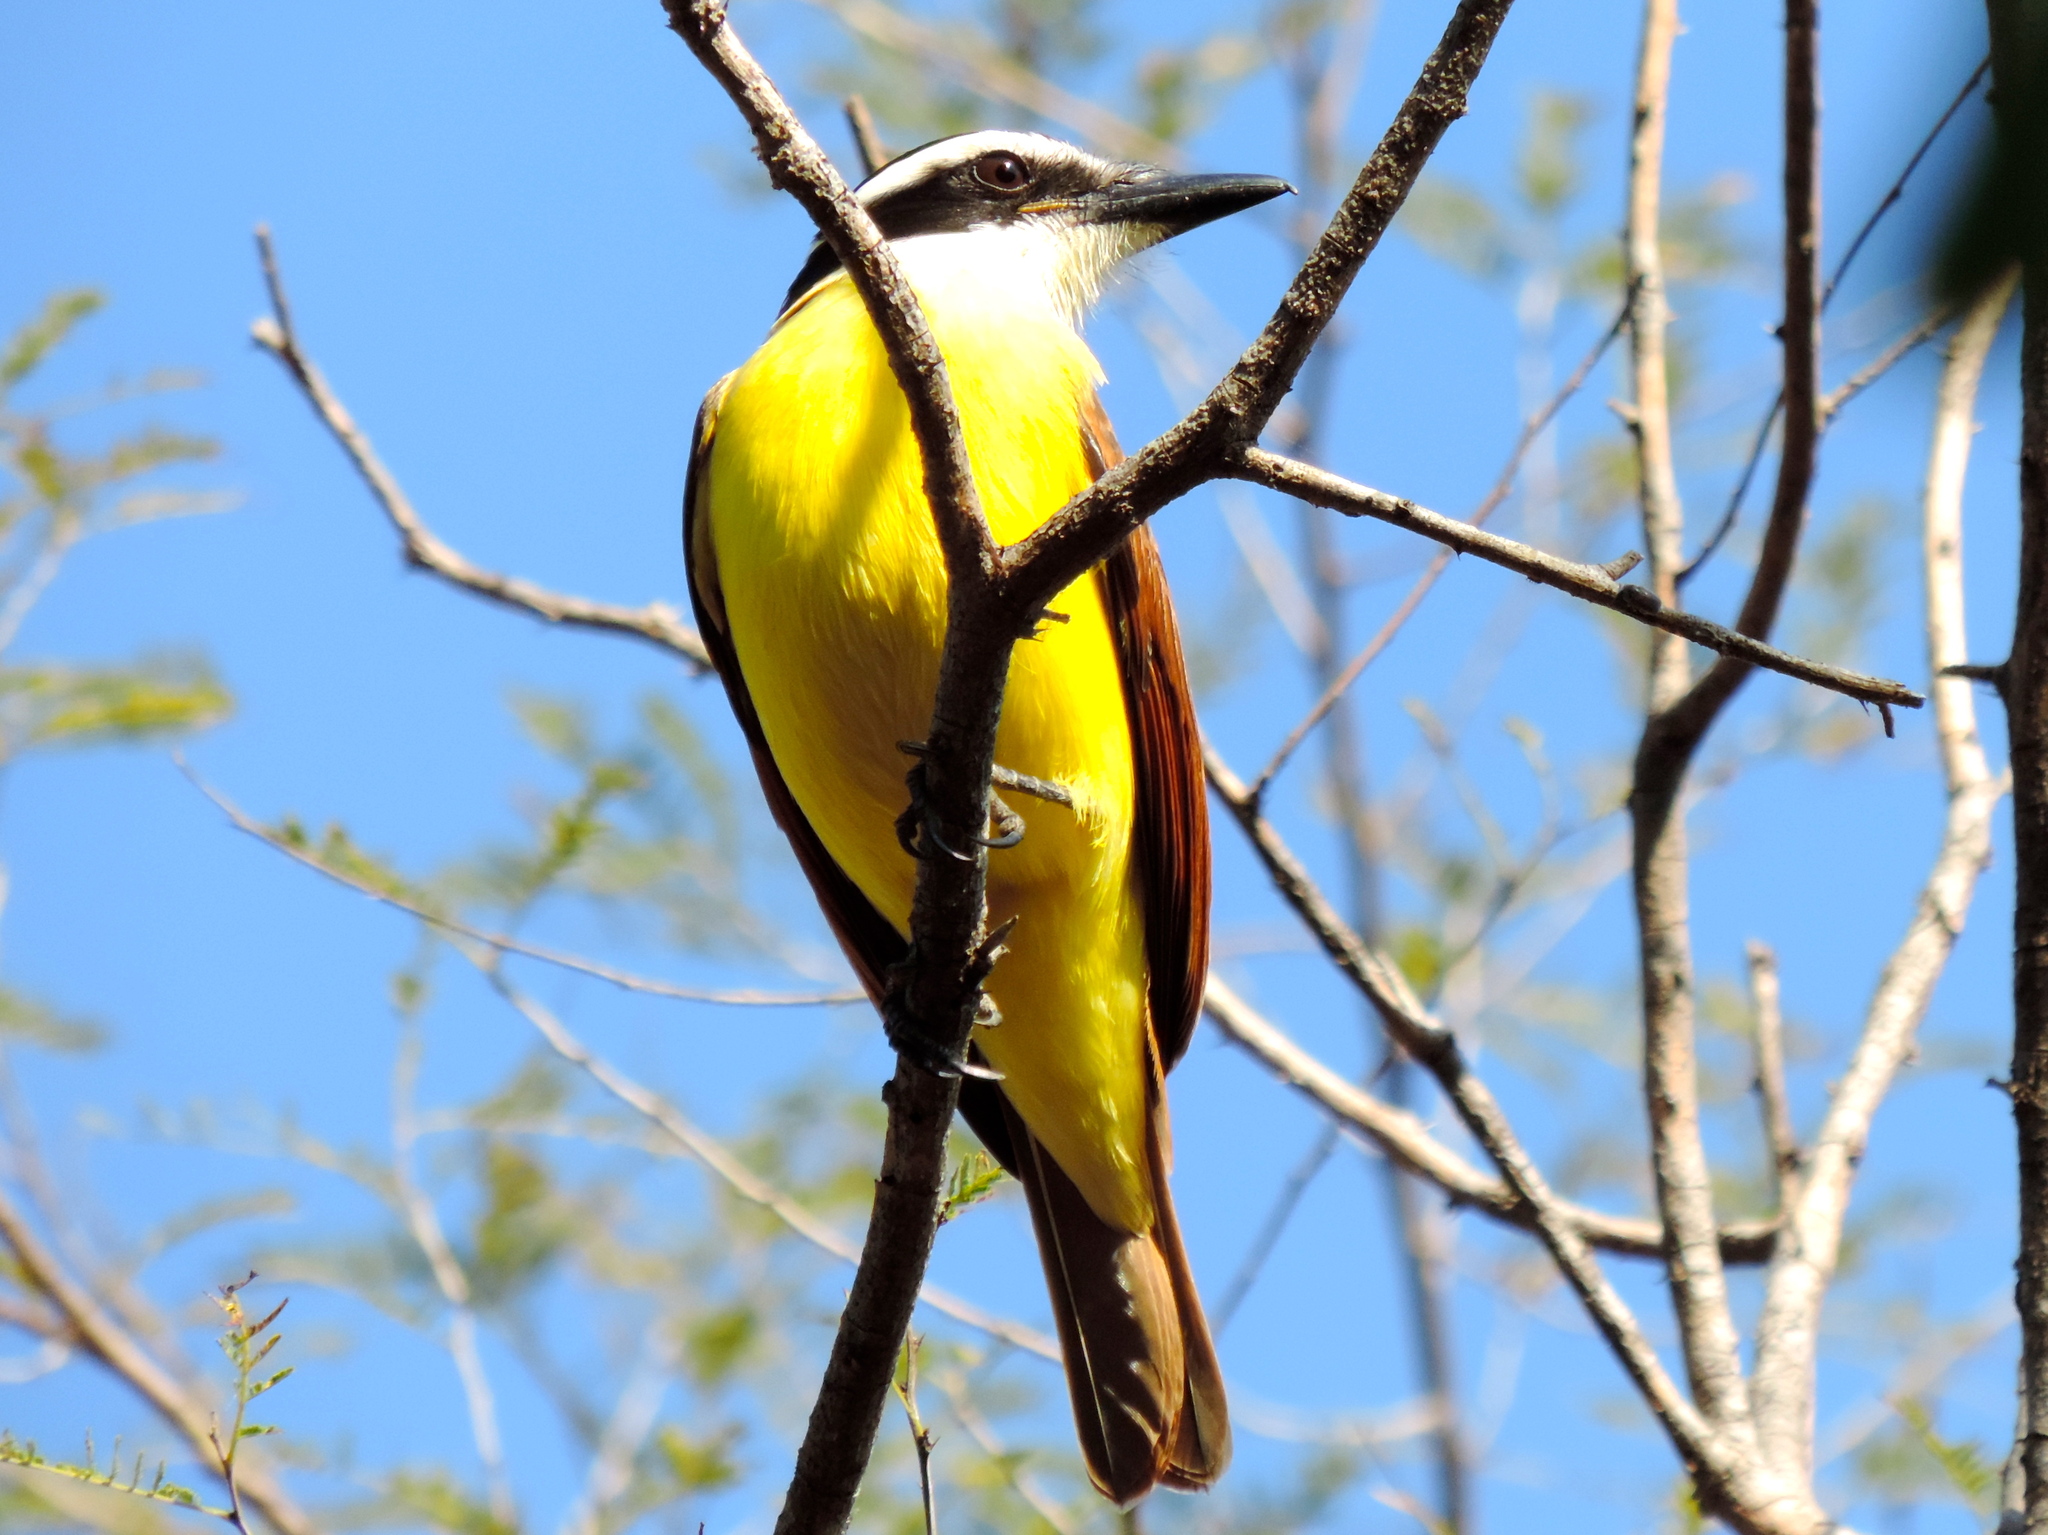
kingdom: Animalia
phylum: Chordata
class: Aves
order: Passeriformes
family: Tyrannidae
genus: Pitangus
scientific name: Pitangus sulphuratus
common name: Great kiskadee
